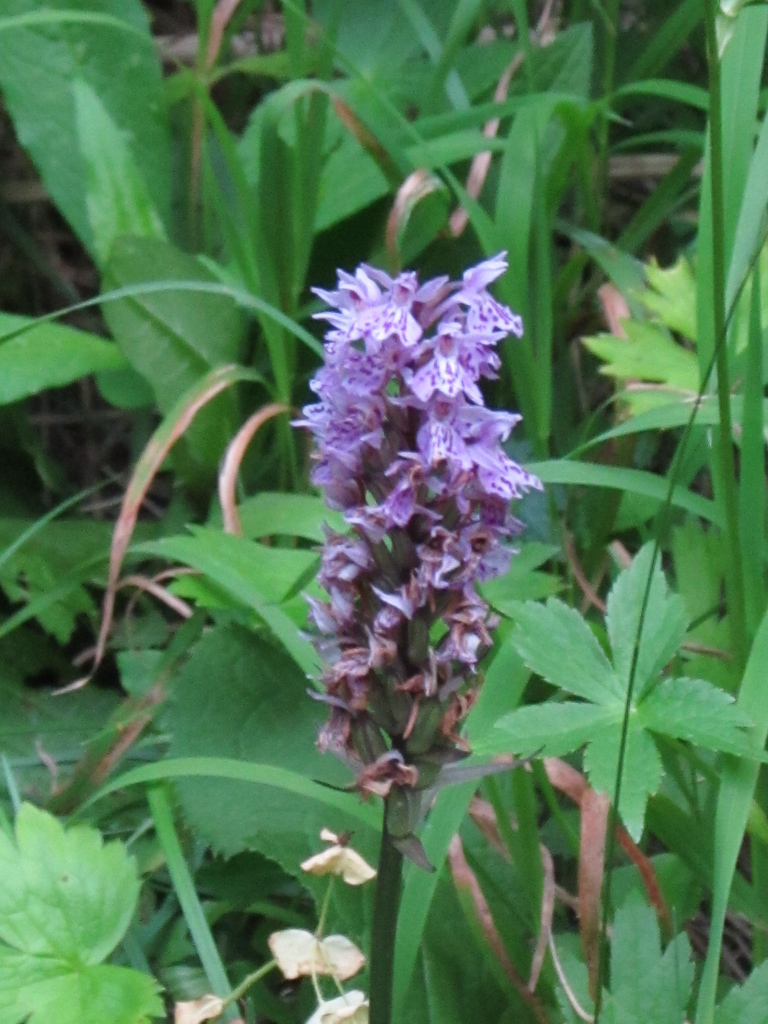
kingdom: Plantae
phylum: Tracheophyta
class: Liliopsida
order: Asparagales
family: Orchidaceae
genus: Dactylorhiza
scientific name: Dactylorhiza maculata
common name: Heath spotted-orchid
